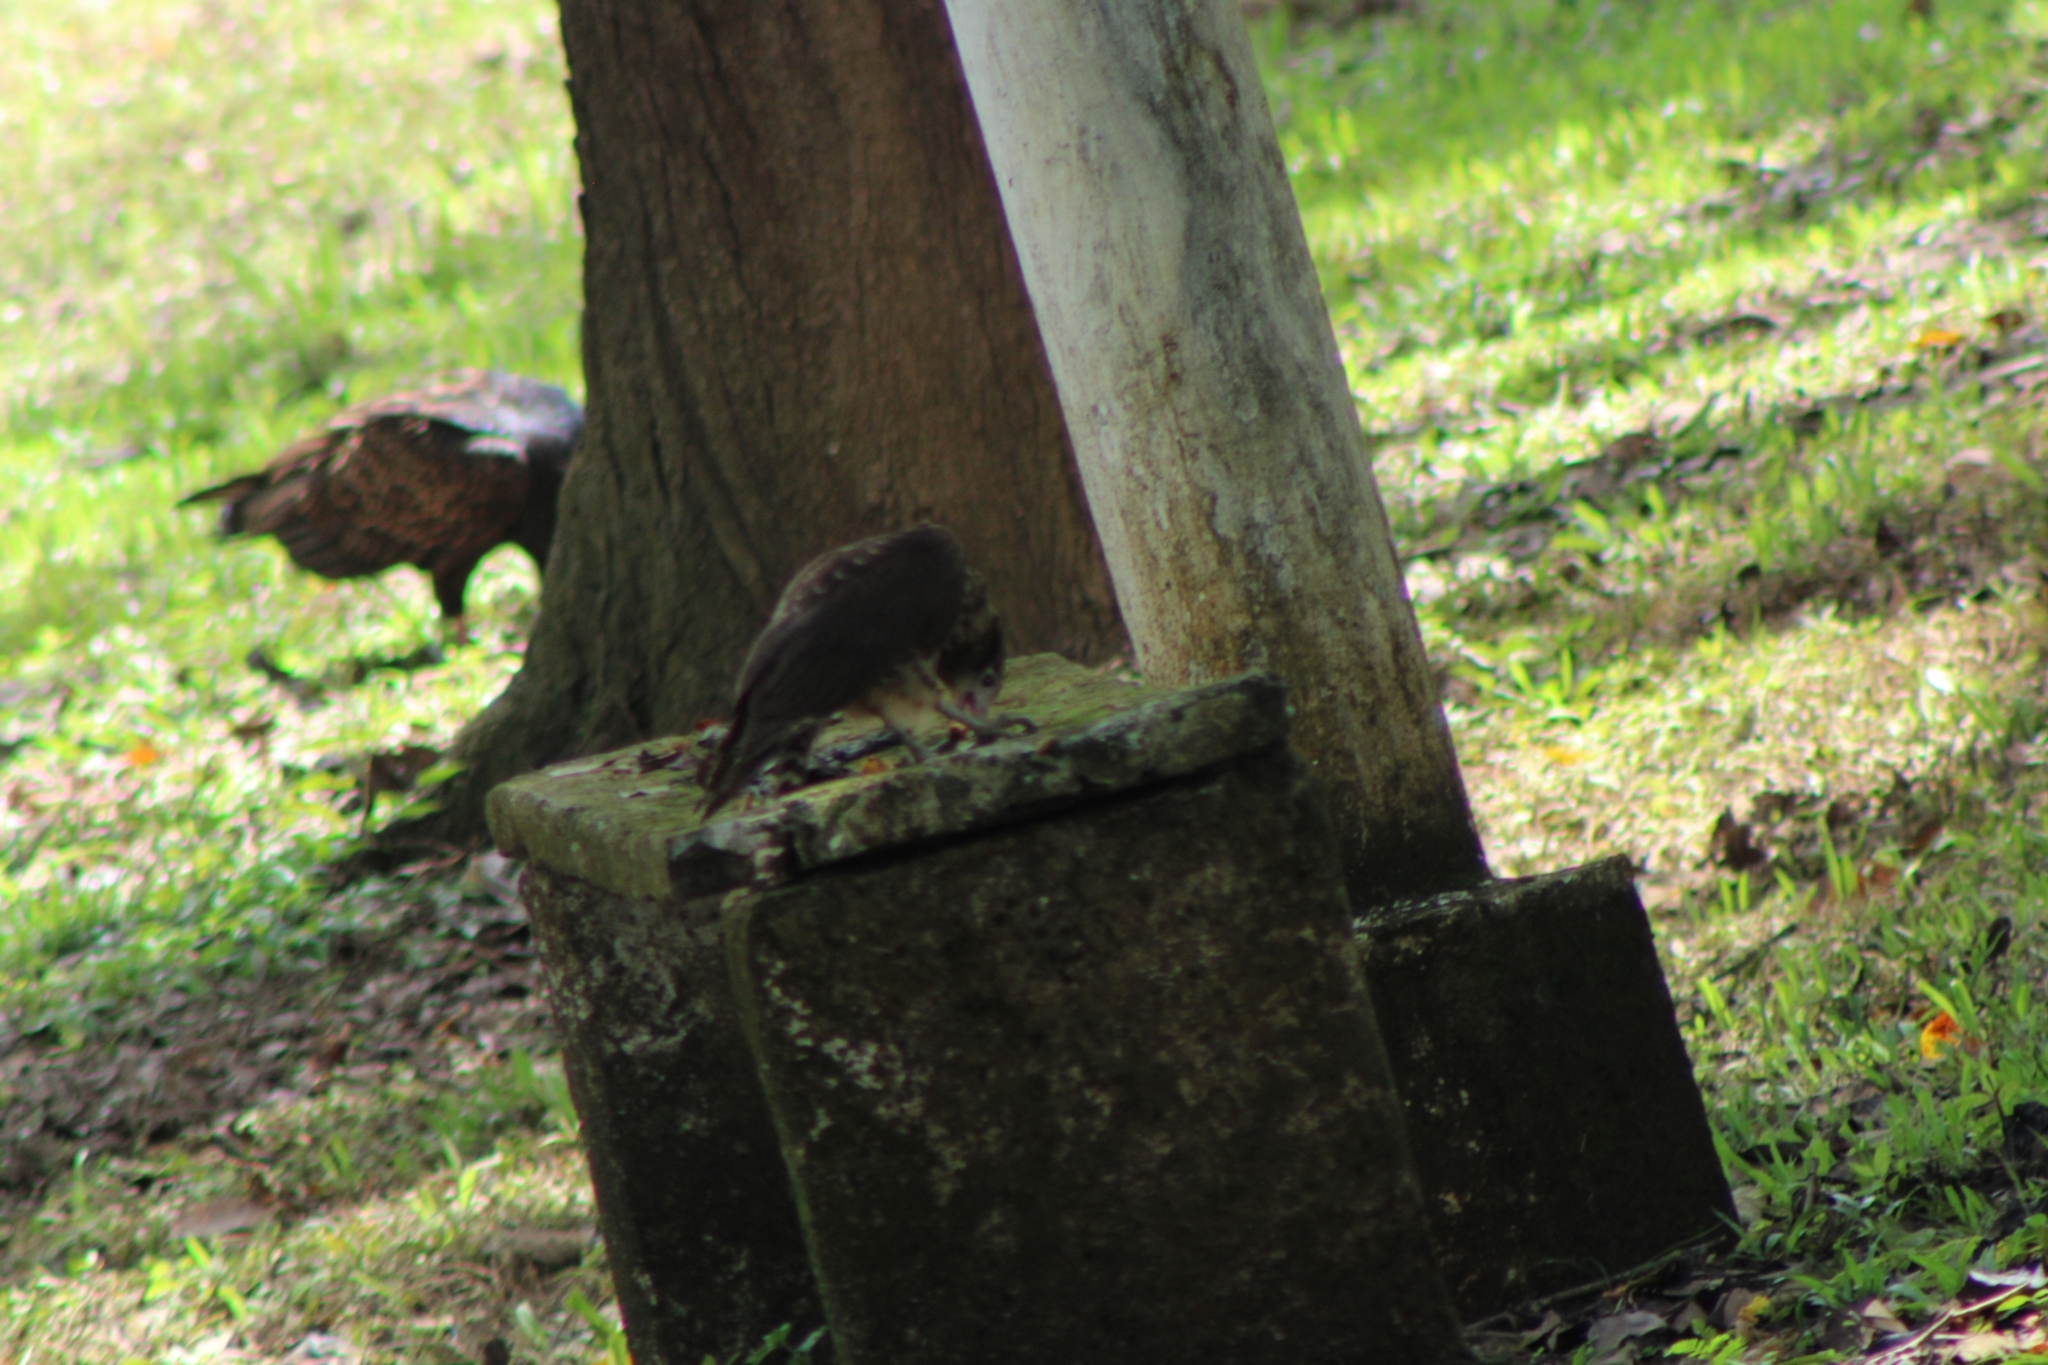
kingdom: Animalia
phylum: Chordata
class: Aves
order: Falconiformes
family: Falconidae
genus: Daptrius
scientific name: Daptrius
